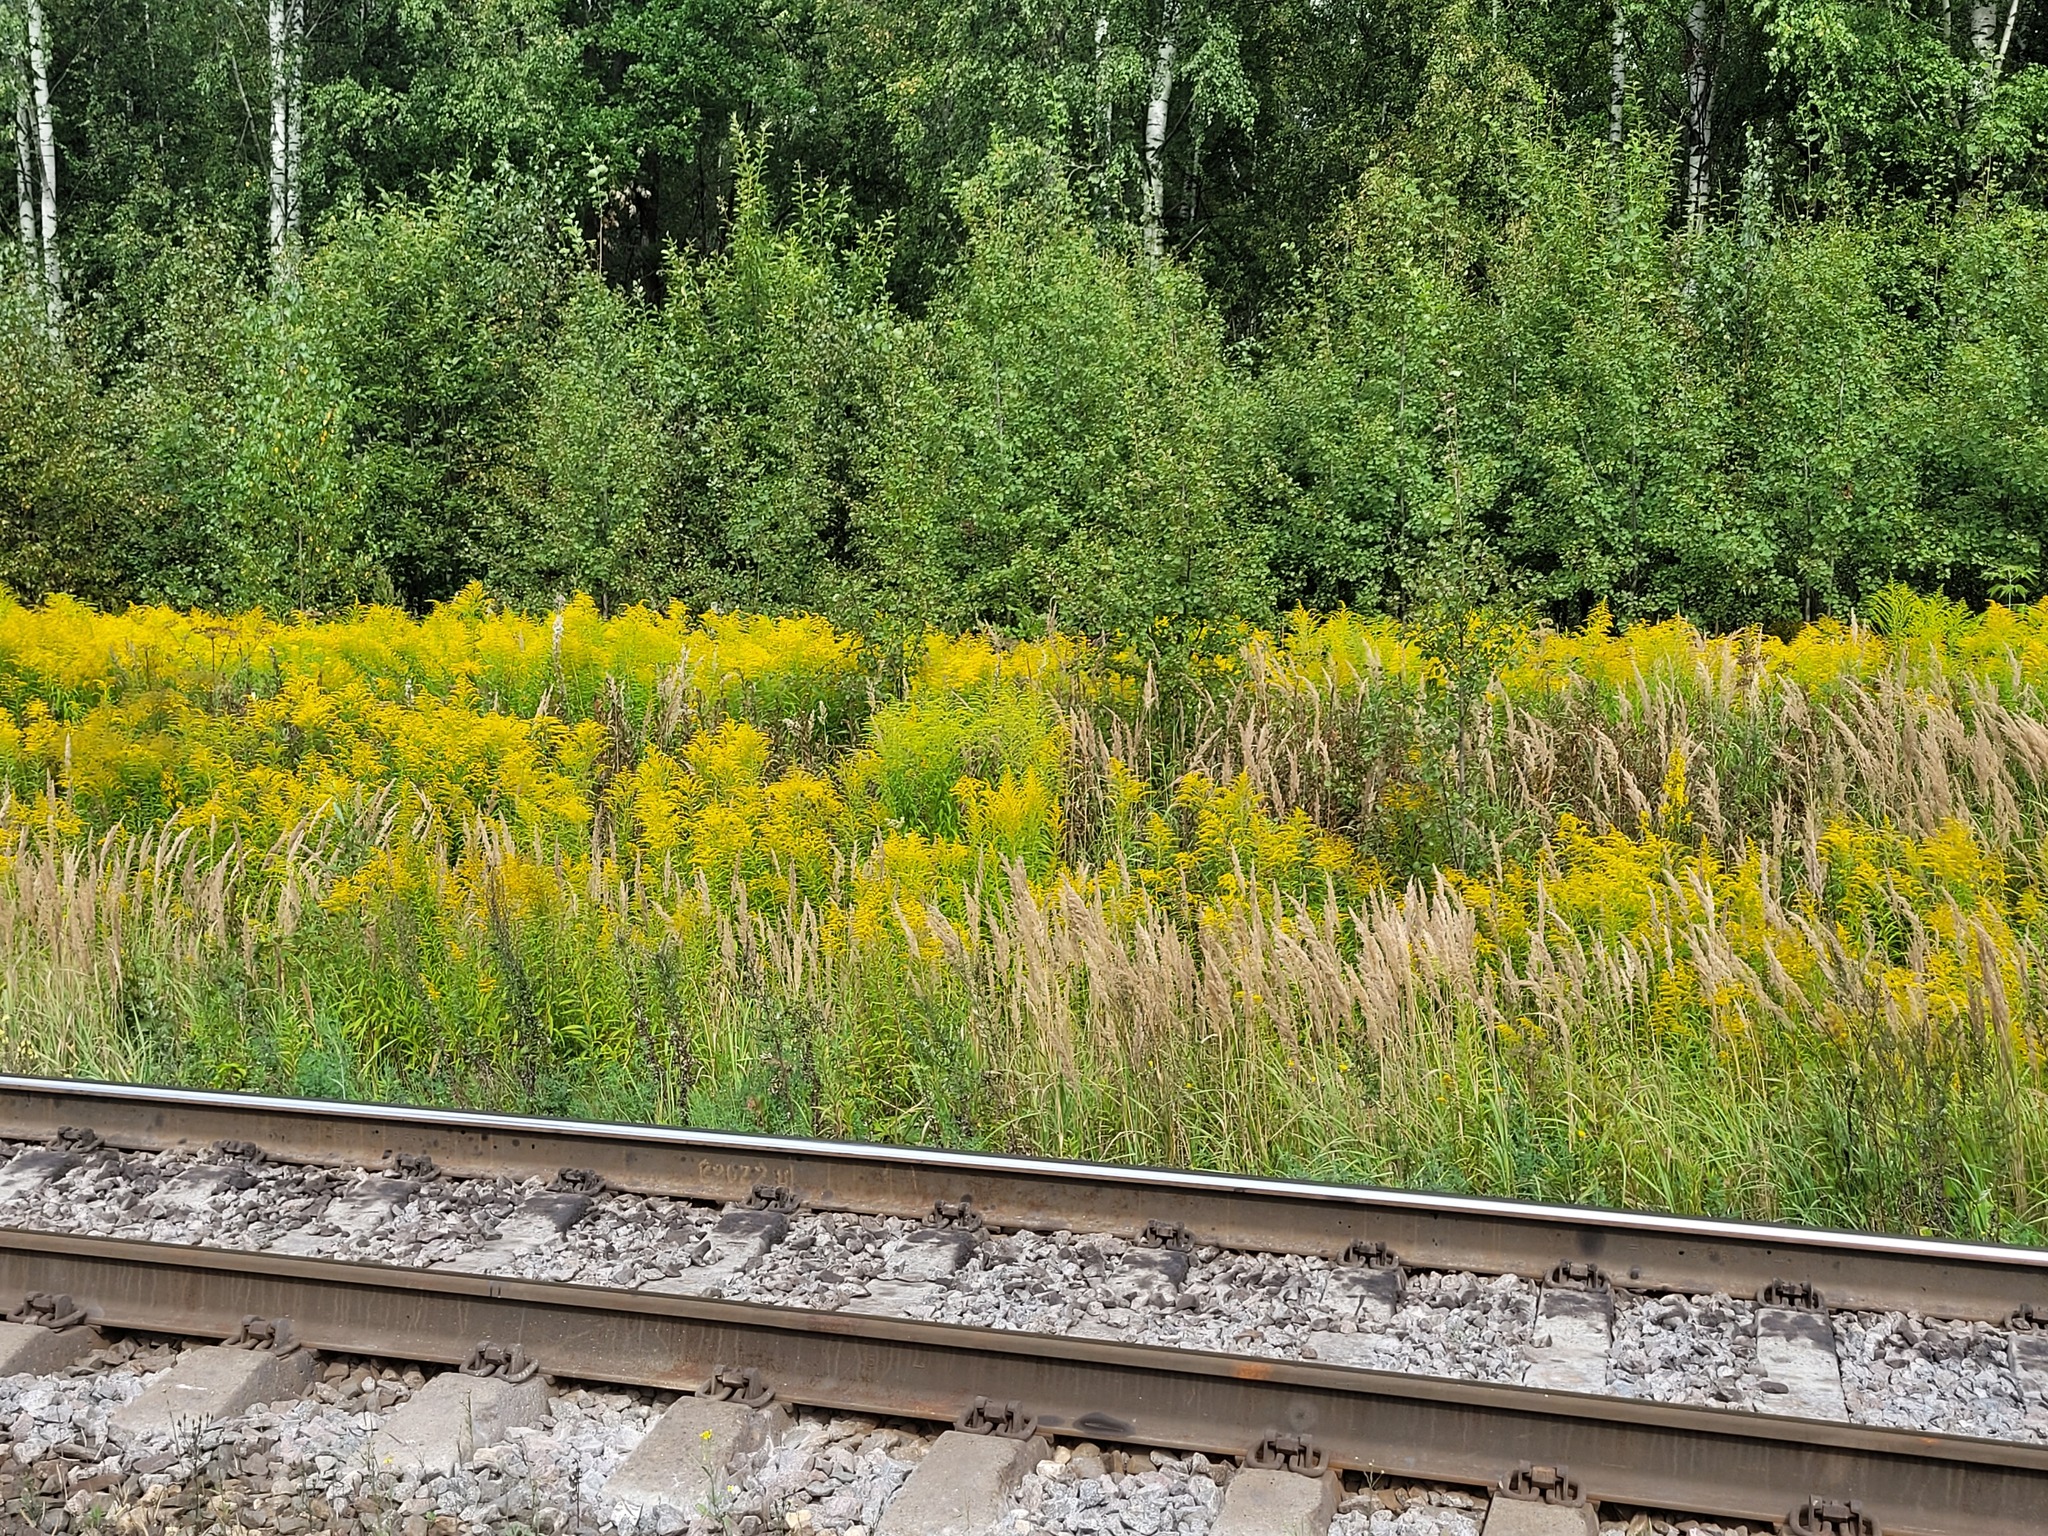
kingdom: Plantae
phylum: Tracheophyta
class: Magnoliopsida
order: Asterales
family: Asteraceae
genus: Solidago
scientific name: Solidago canadensis
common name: Canada goldenrod
